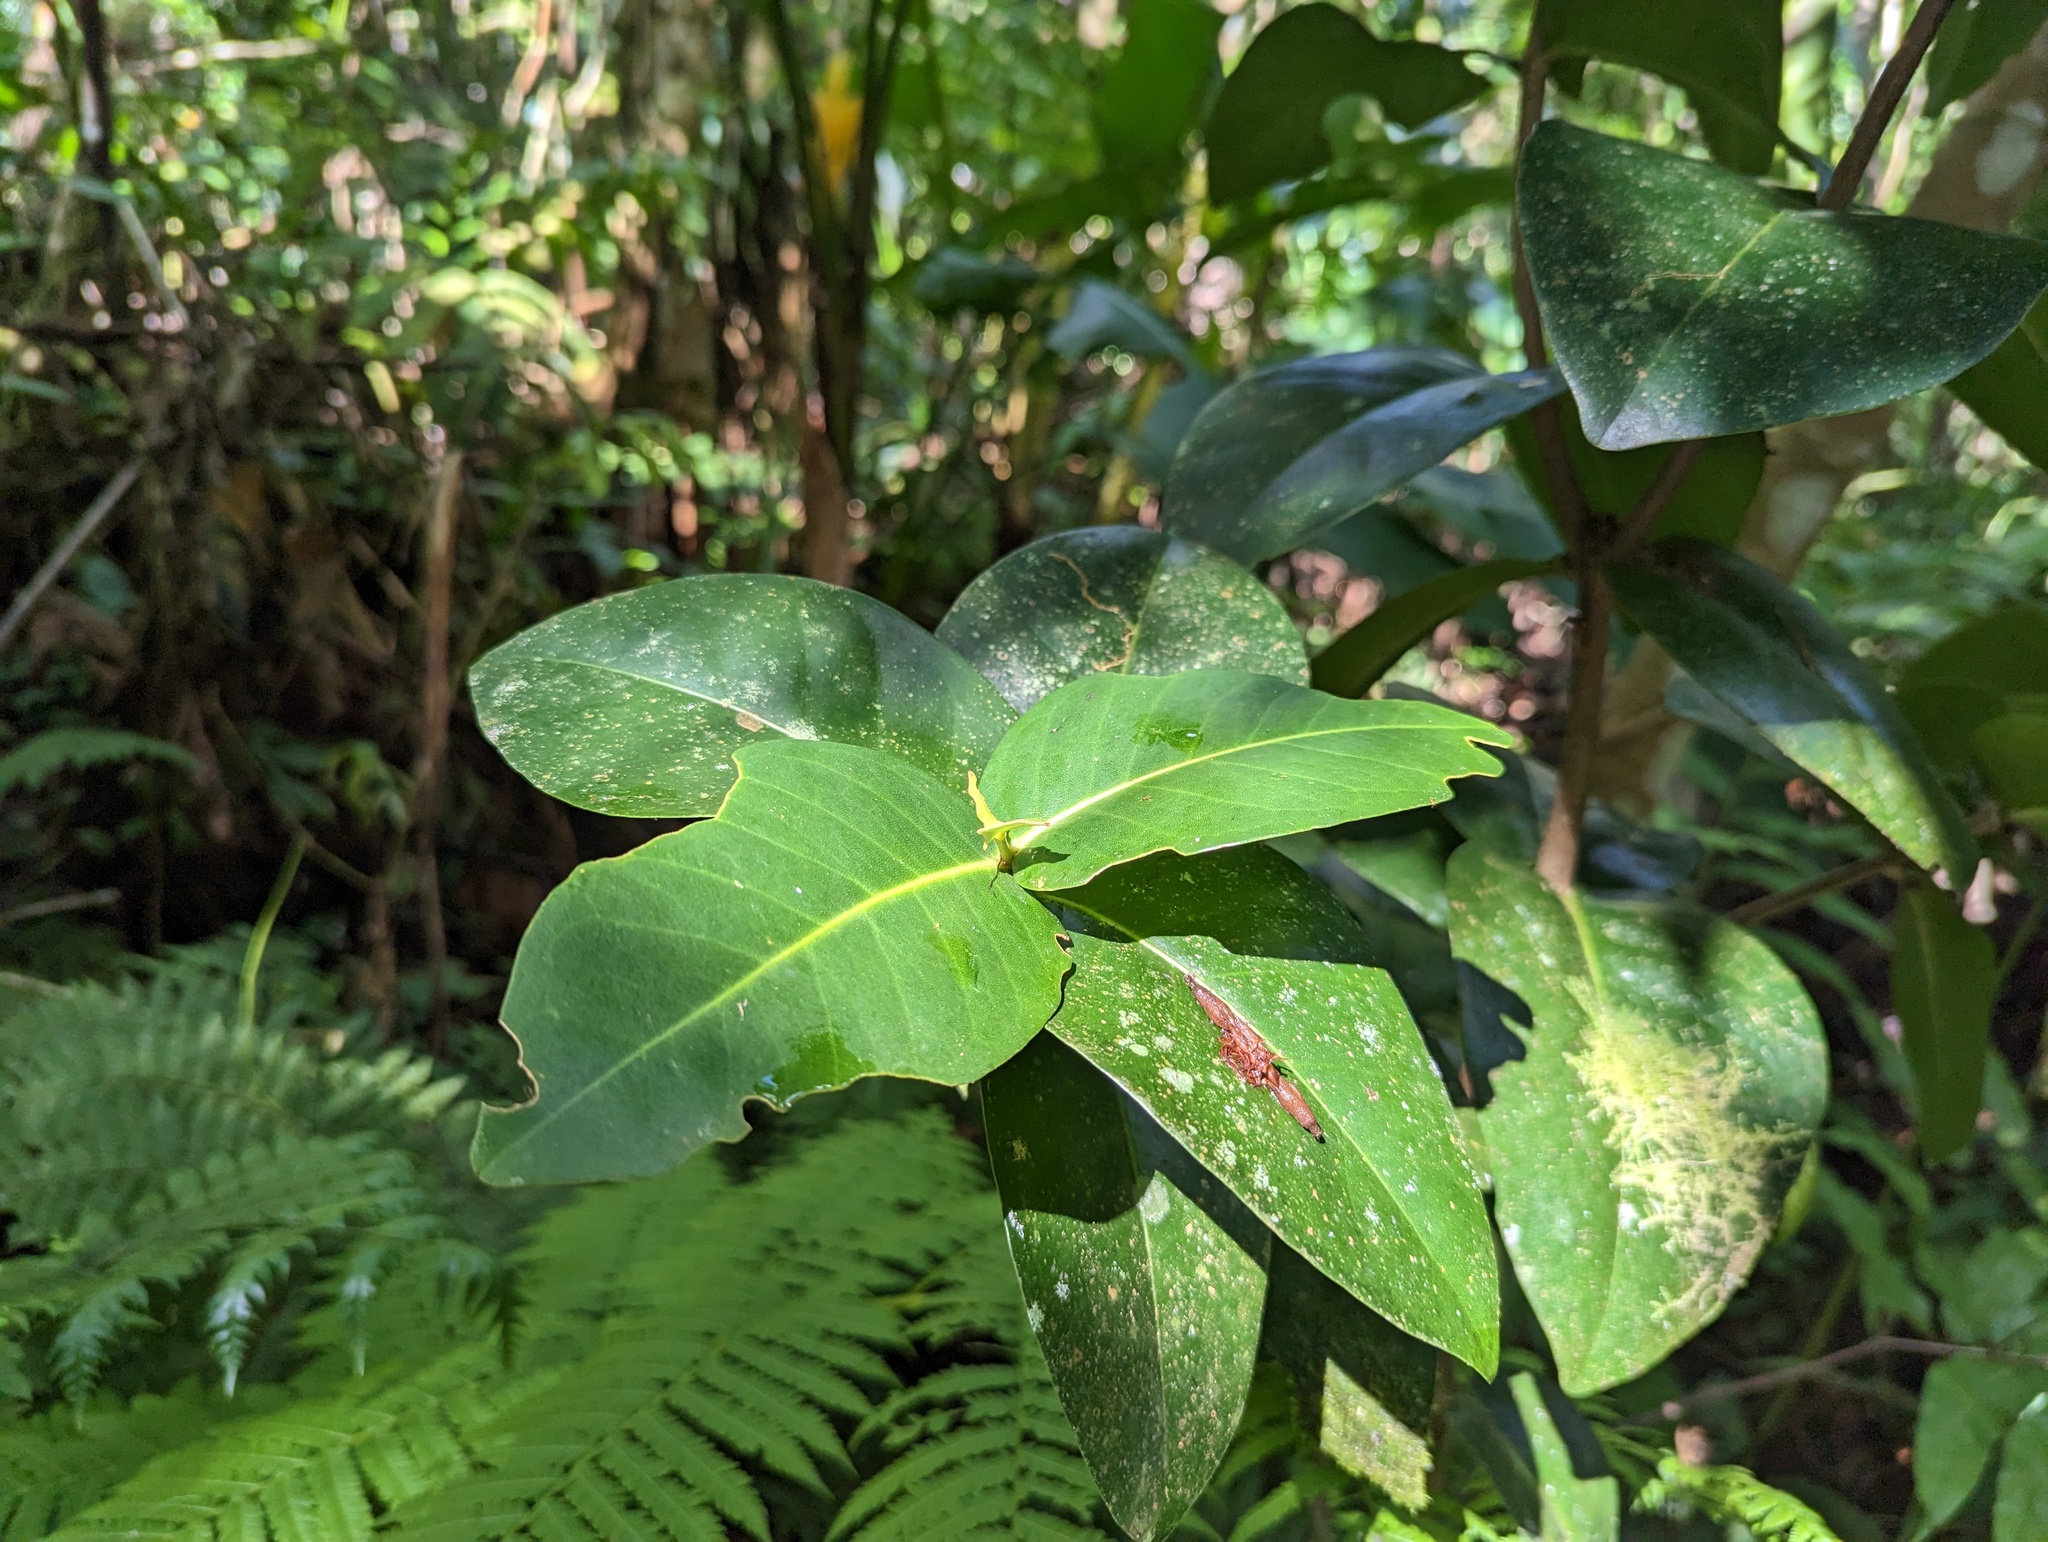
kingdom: Plantae
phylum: Tracheophyta
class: Magnoliopsida
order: Sapindales
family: Rutaceae
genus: Ravenia
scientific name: Ravenia urbani
